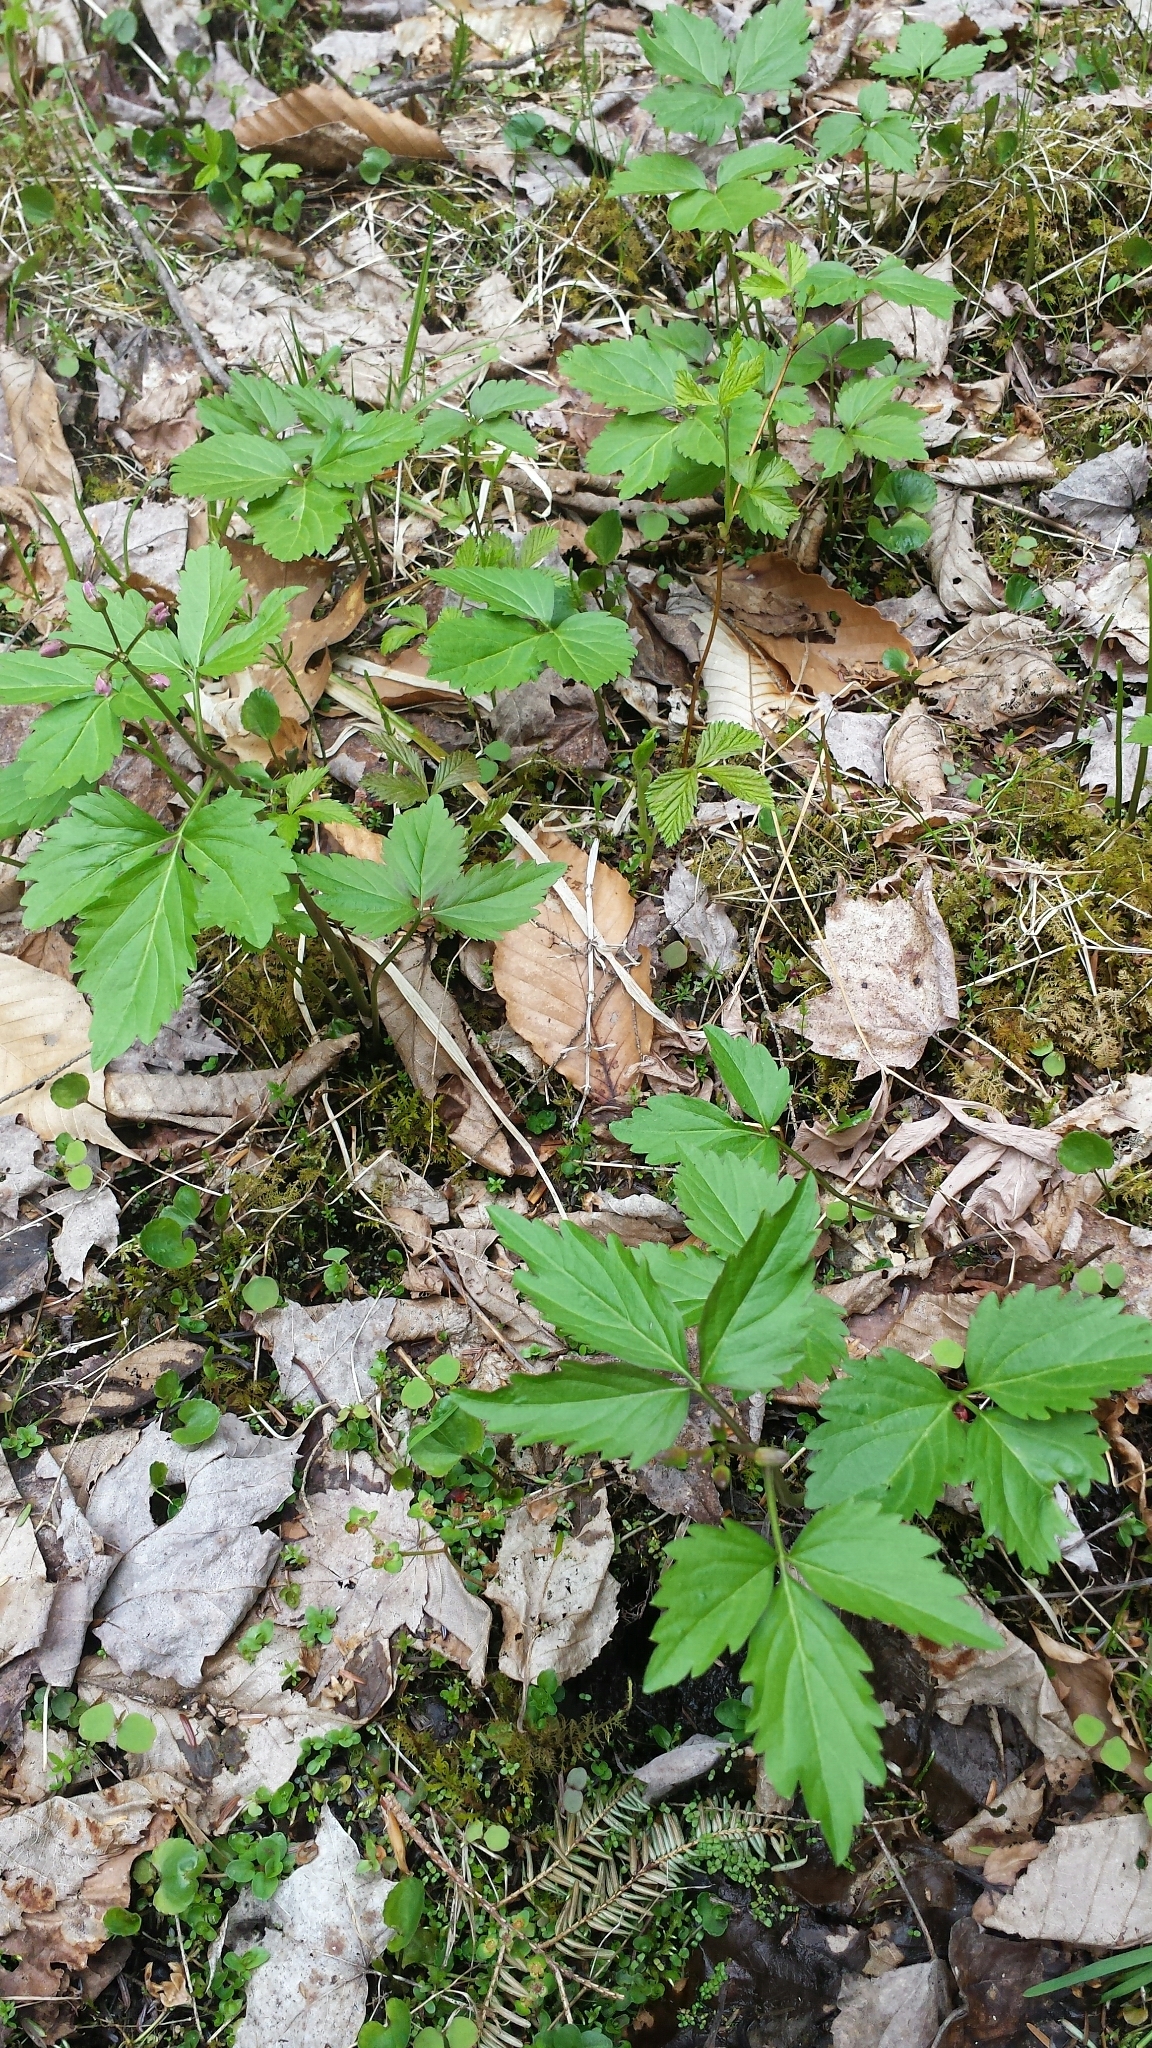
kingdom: Plantae
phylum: Tracheophyta
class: Magnoliopsida
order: Brassicales
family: Brassicaceae
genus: Cardamine
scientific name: Cardamine diphylla
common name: Broad-leaved toothwort
